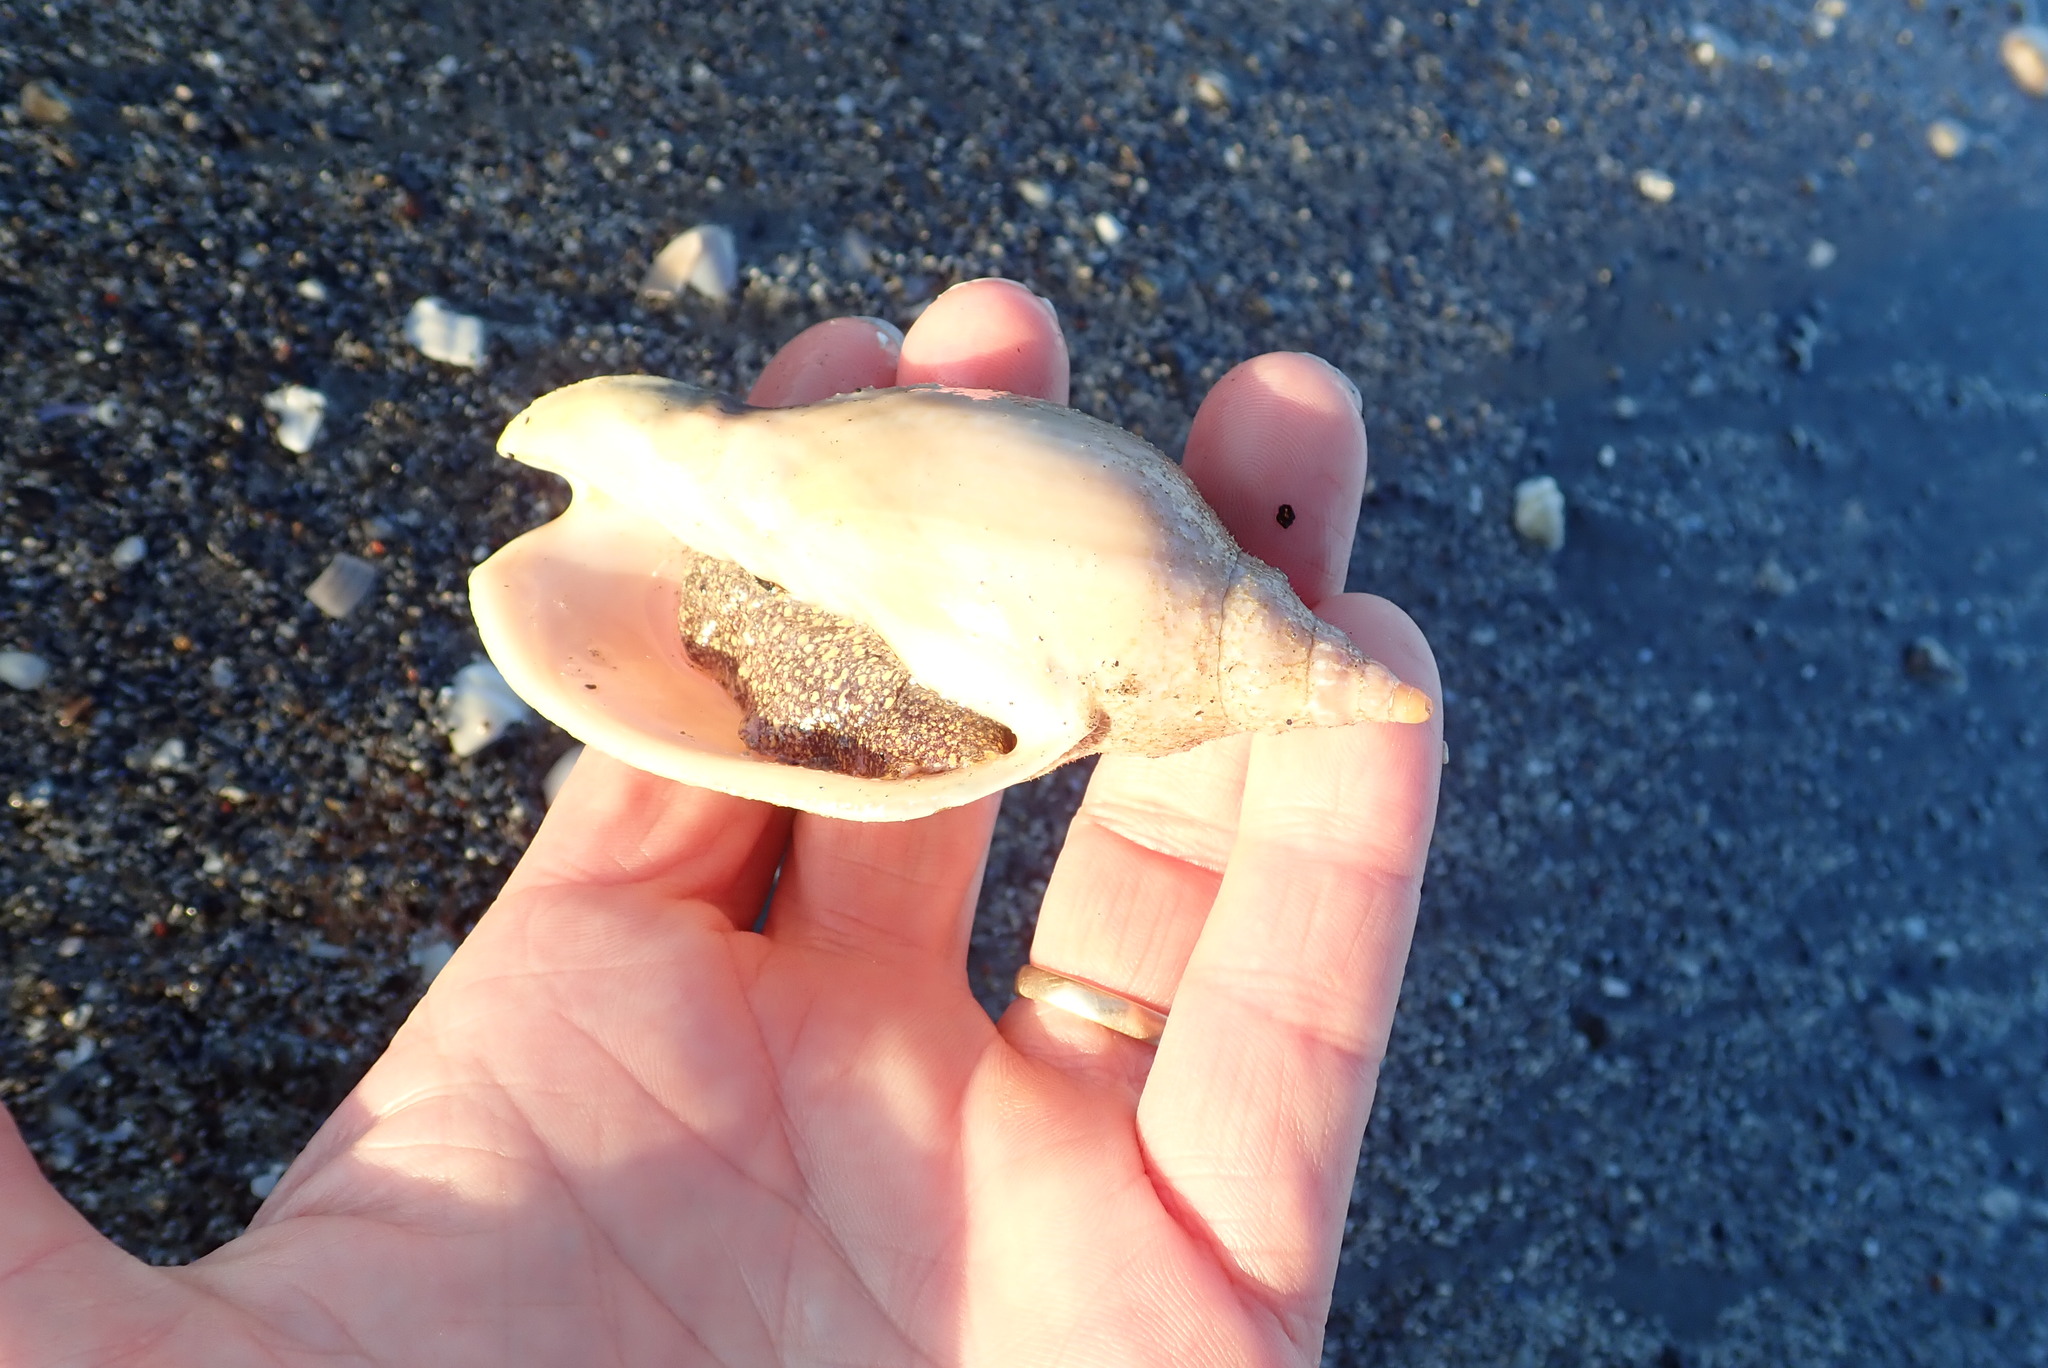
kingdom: Animalia
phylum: Mollusca
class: Gastropoda
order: Neogastropoda
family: Volutidae
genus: Alcithoe
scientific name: Alcithoe arabica
